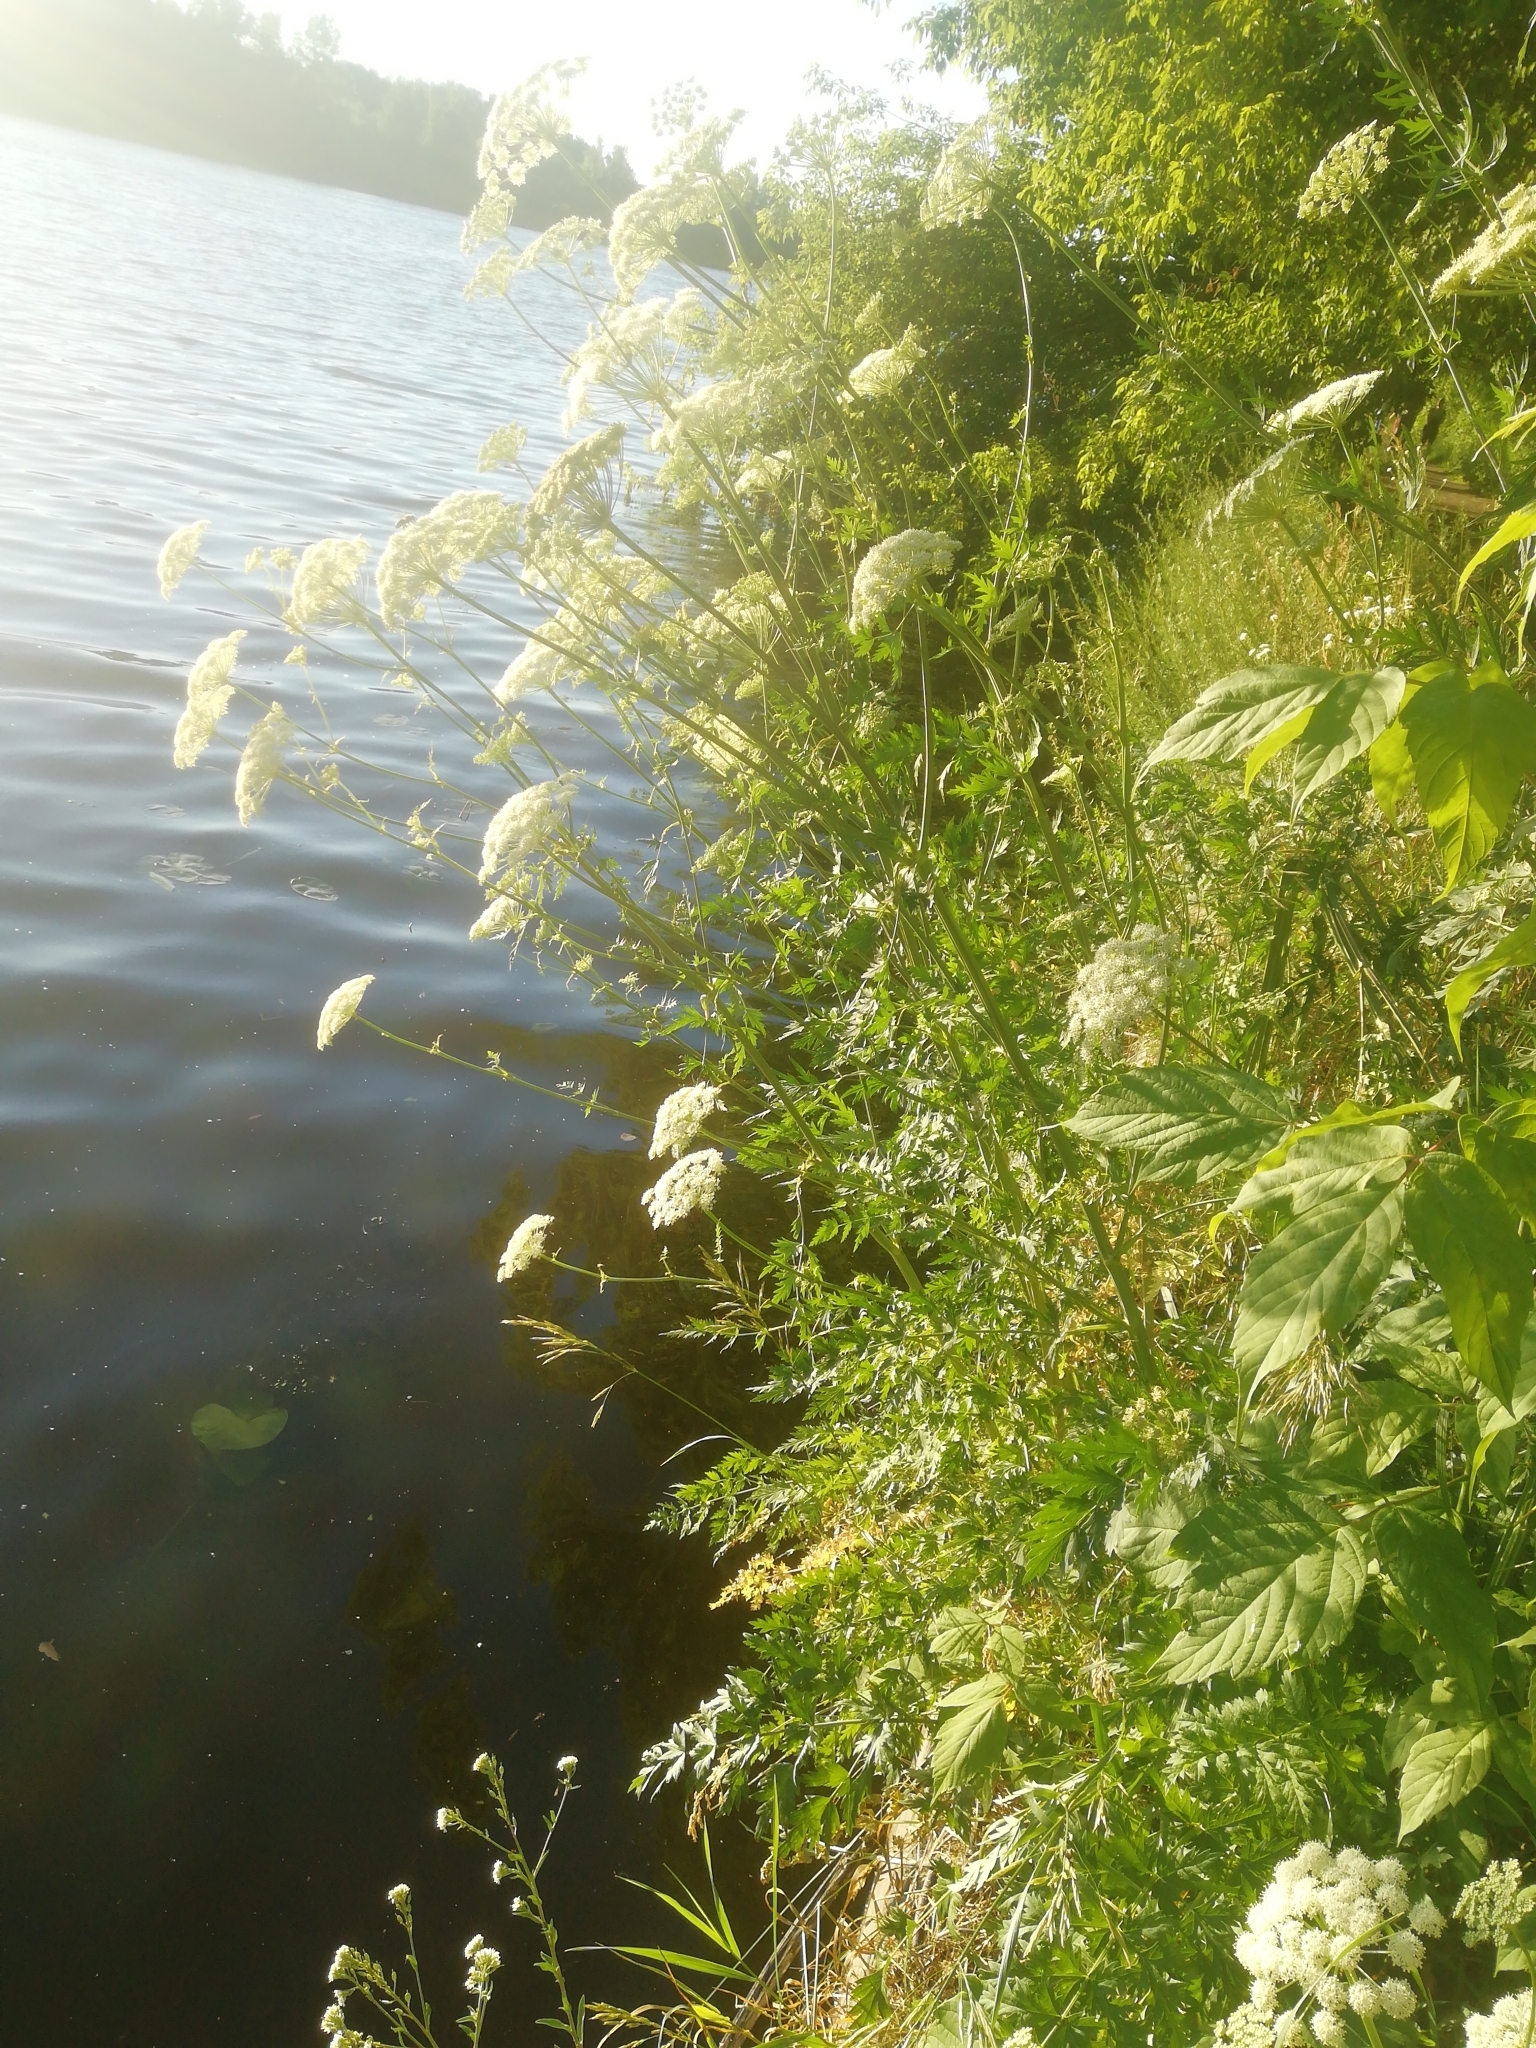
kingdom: Plantae
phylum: Tracheophyta
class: Magnoliopsida
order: Apiales
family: Apiaceae
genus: Seseli
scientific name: Seseli libanotis
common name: Mooncarrot
